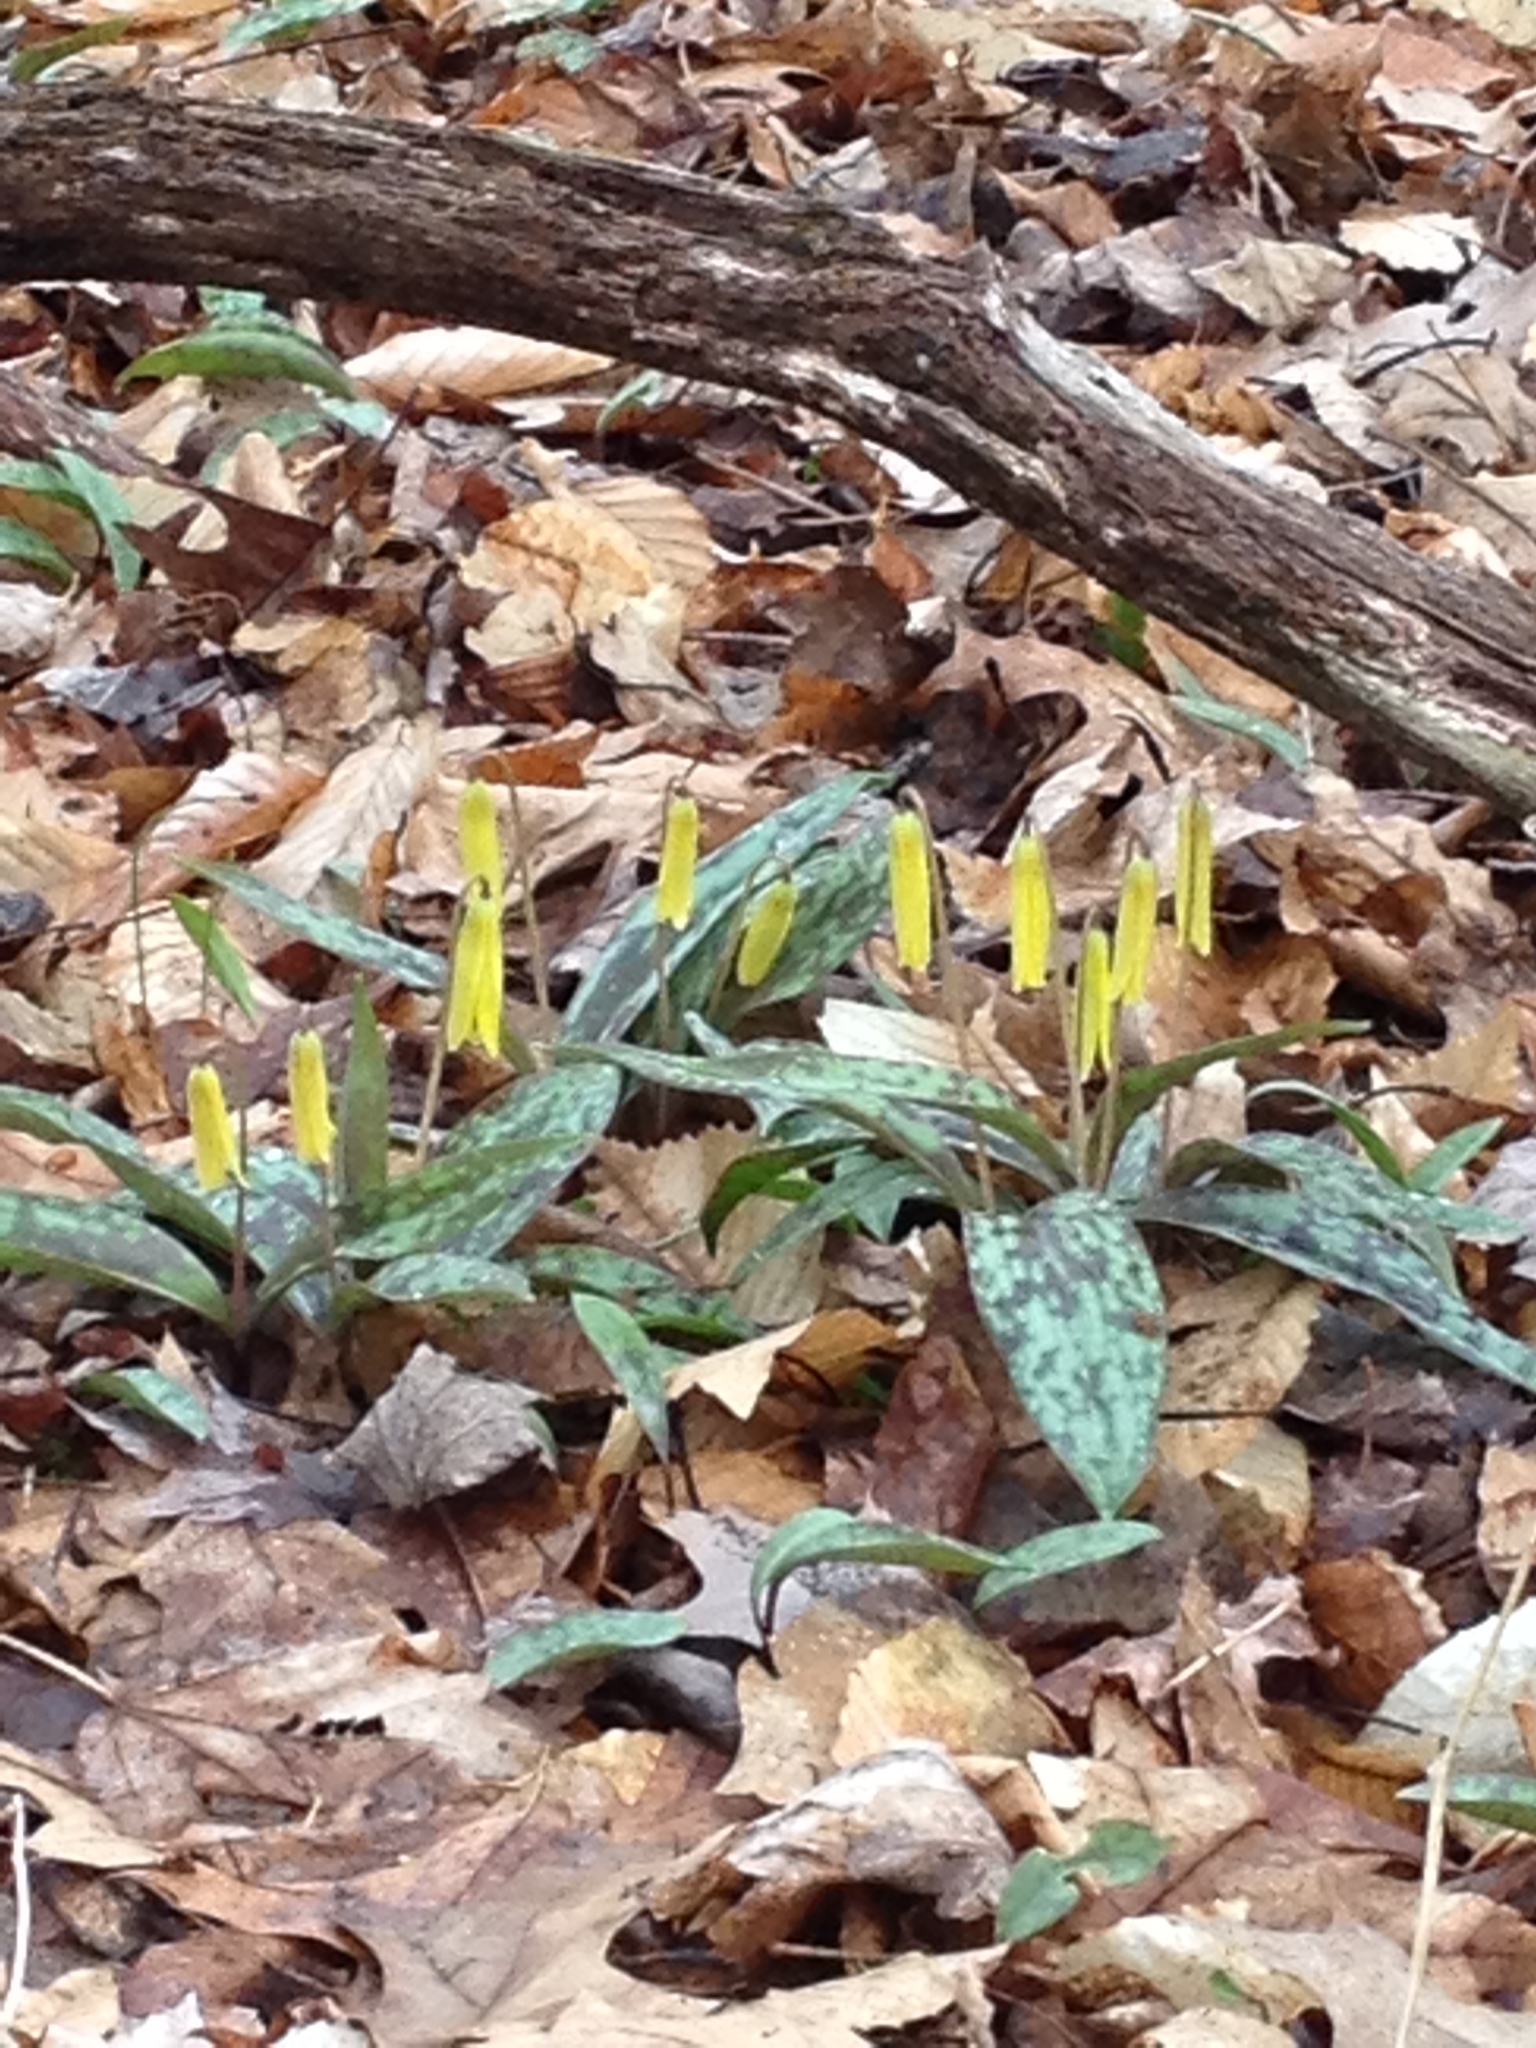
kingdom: Plantae
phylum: Tracheophyta
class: Liliopsida
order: Liliales
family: Liliaceae
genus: Erythronium
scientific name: Erythronium americanum
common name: Yellow adder's-tongue
